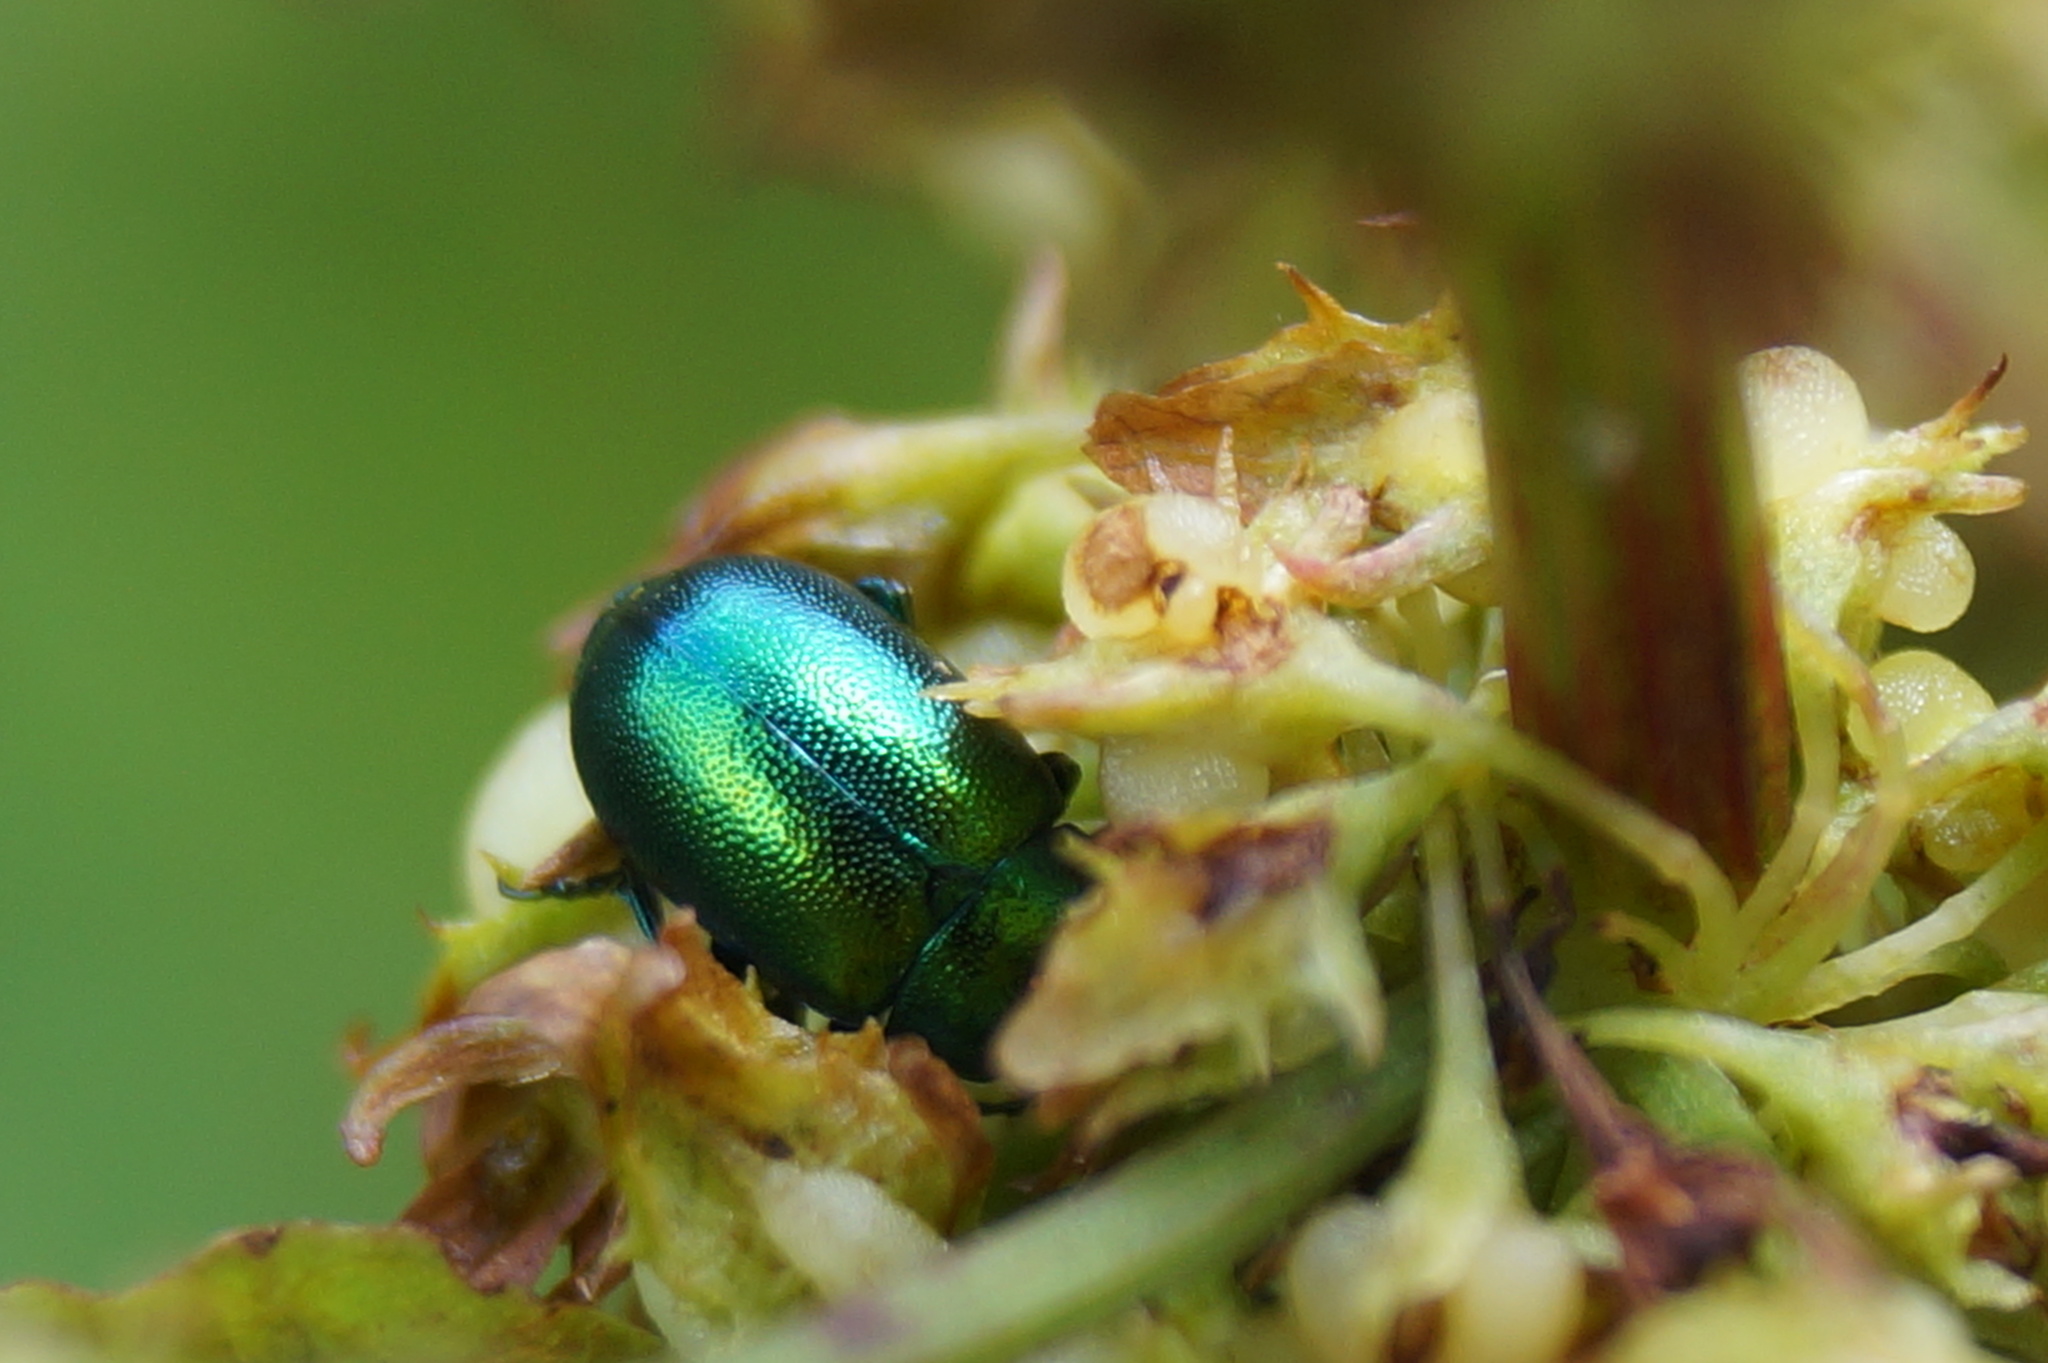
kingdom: Animalia
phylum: Arthropoda
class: Insecta
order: Coleoptera
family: Chrysomelidae
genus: Gastrophysa
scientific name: Gastrophysa viridula
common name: Green dock beetle
